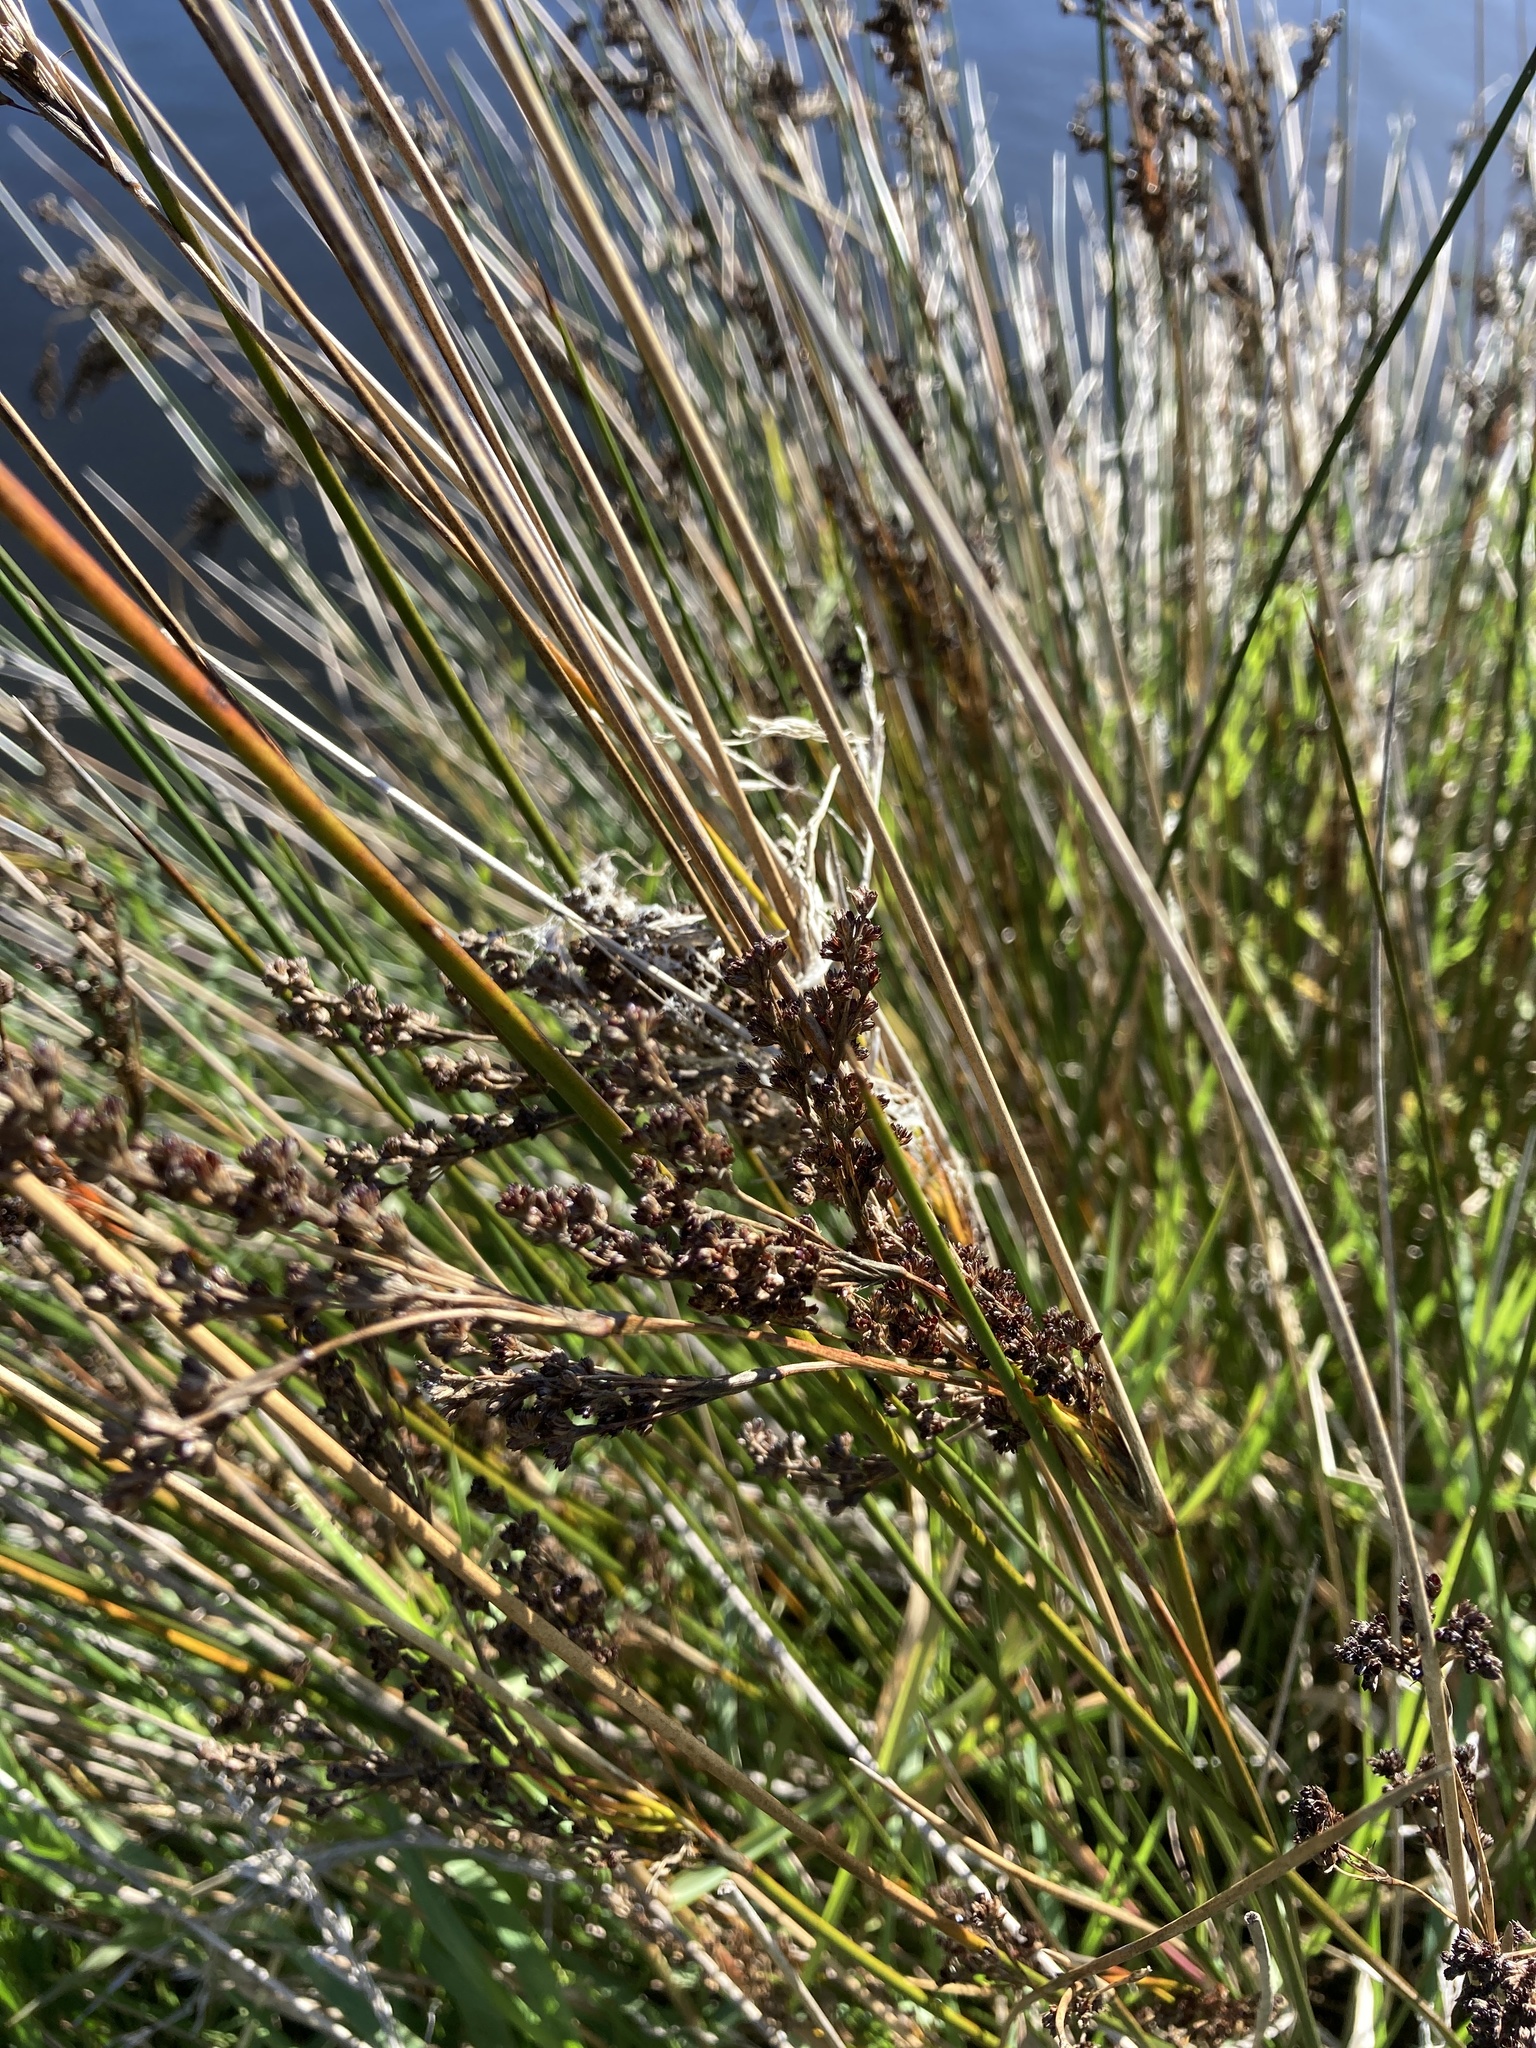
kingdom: Plantae
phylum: Tracheophyta
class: Liliopsida
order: Poales
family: Juncaceae
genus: Juncus
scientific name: Juncus kraussii
